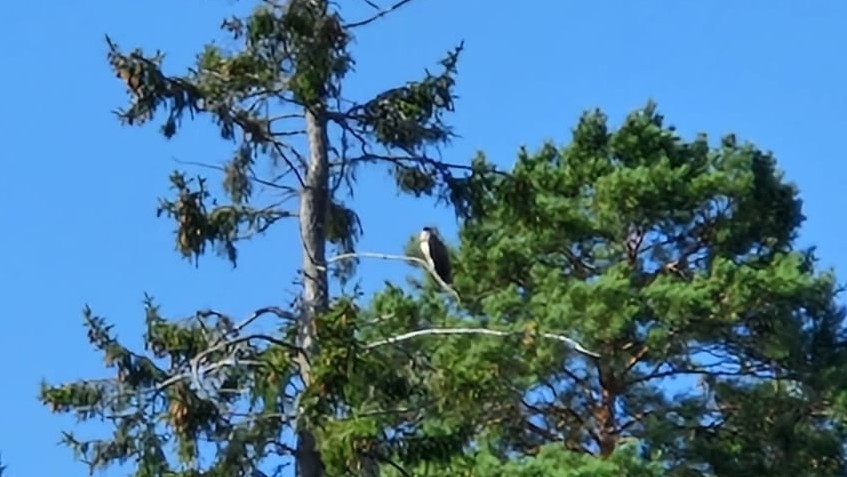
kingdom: Animalia
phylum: Chordata
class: Aves
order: Accipitriformes
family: Pandionidae
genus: Pandion
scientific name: Pandion haliaetus
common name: Osprey
